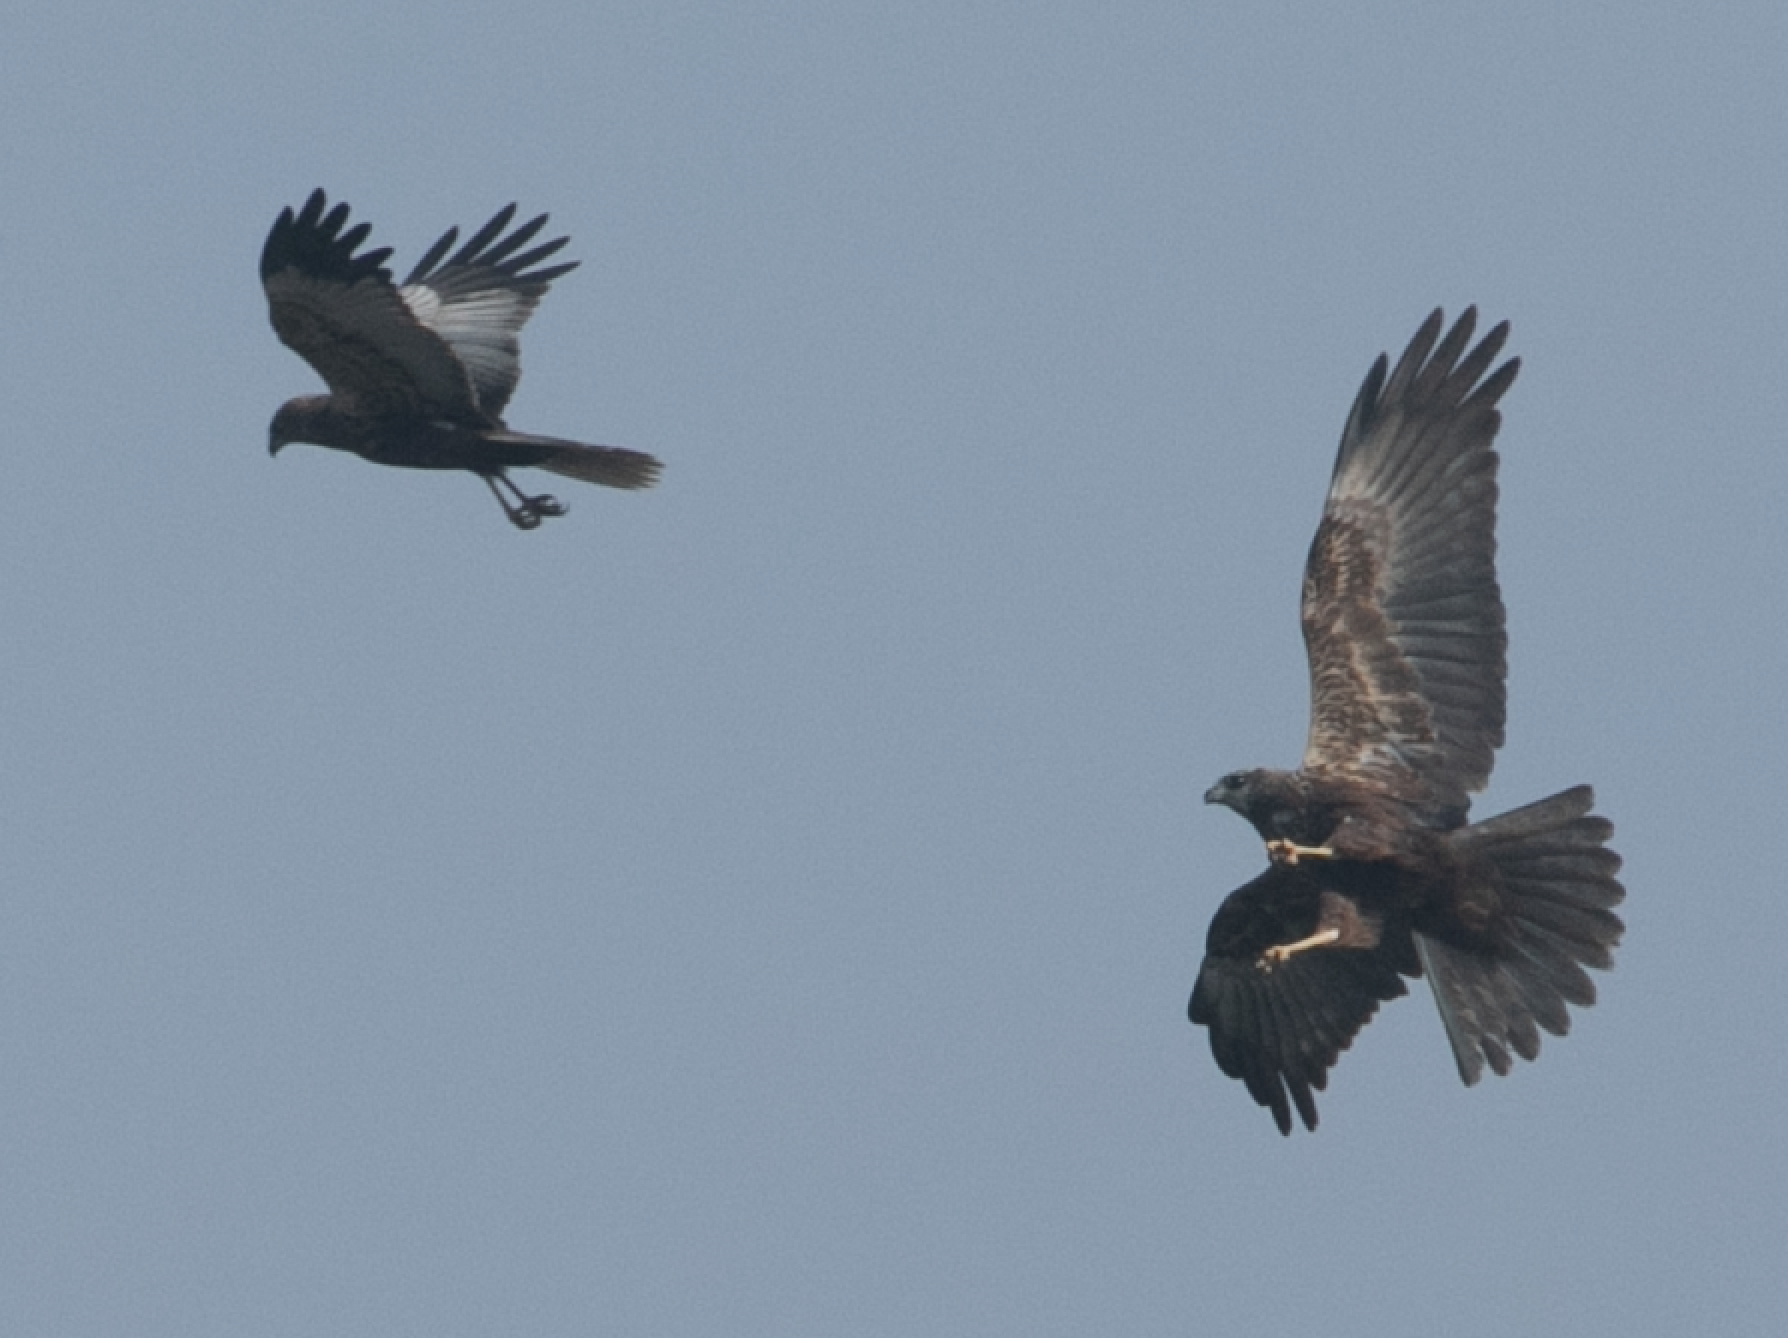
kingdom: Animalia
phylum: Chordata
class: Aves
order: Accipitriformes
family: Accipitridae
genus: Circus
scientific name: Circus aeruginosus
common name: Western marsh harrier
